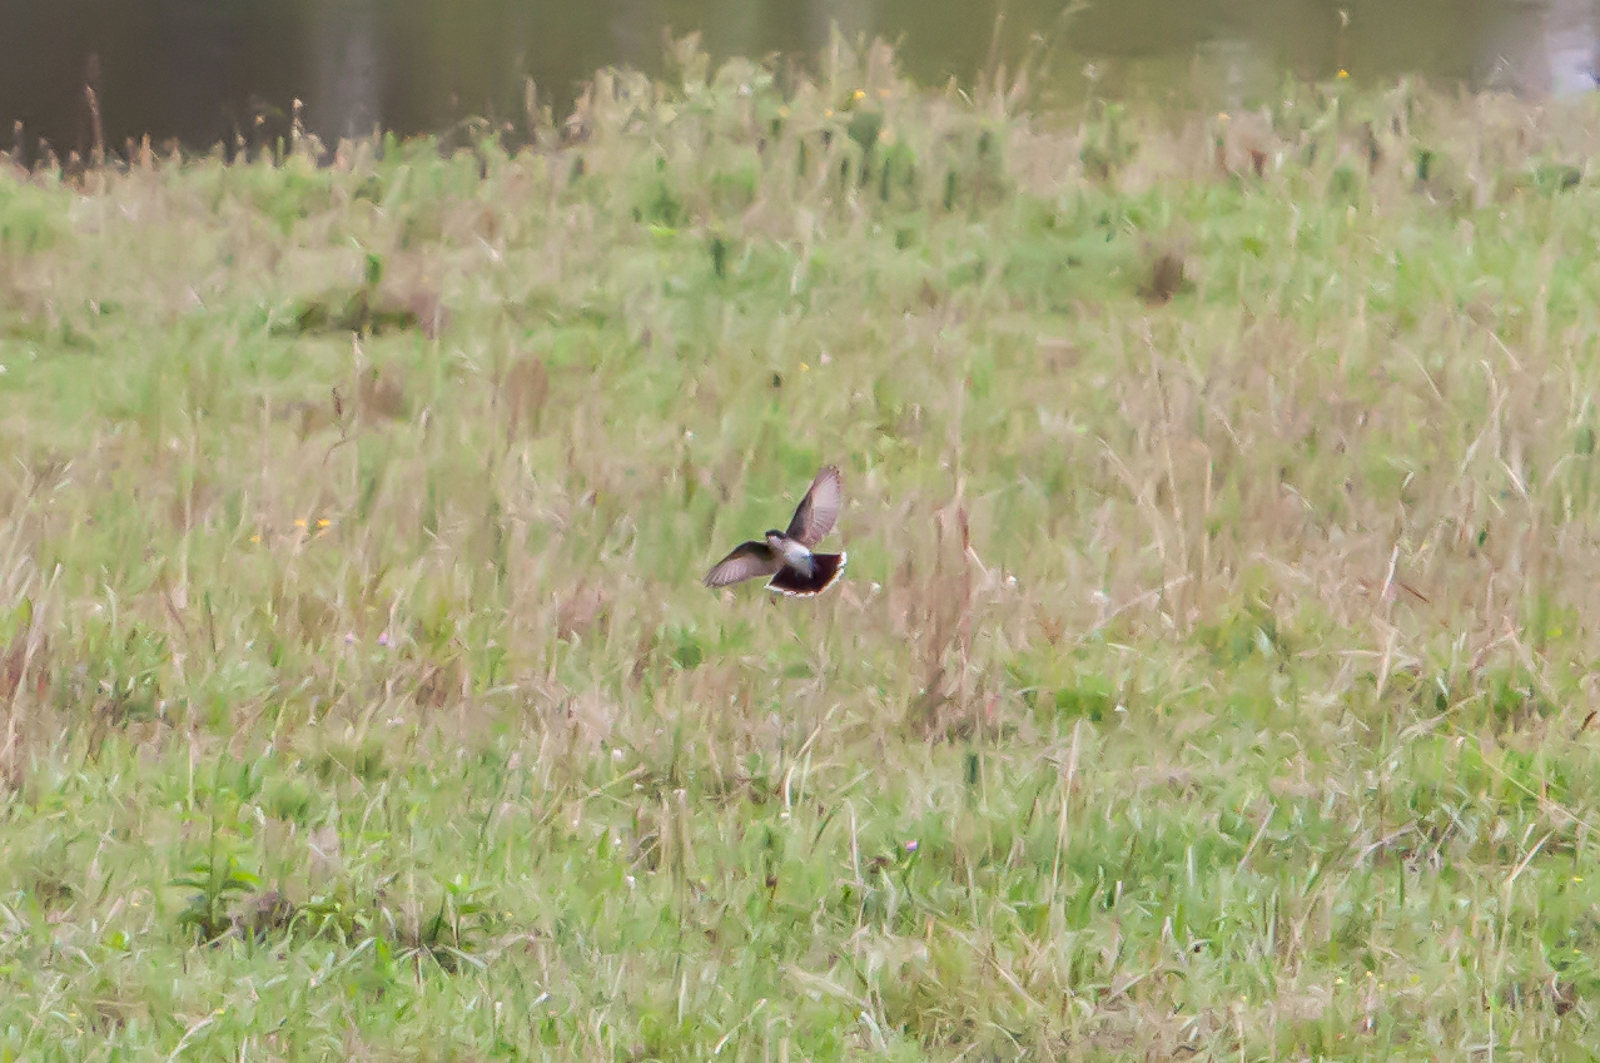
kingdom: Animalia
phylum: Chordata
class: Aves
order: Passeriformes
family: Hirundinidae
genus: Tachycineta
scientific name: Tachycineta bicolor
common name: Tree swallow
